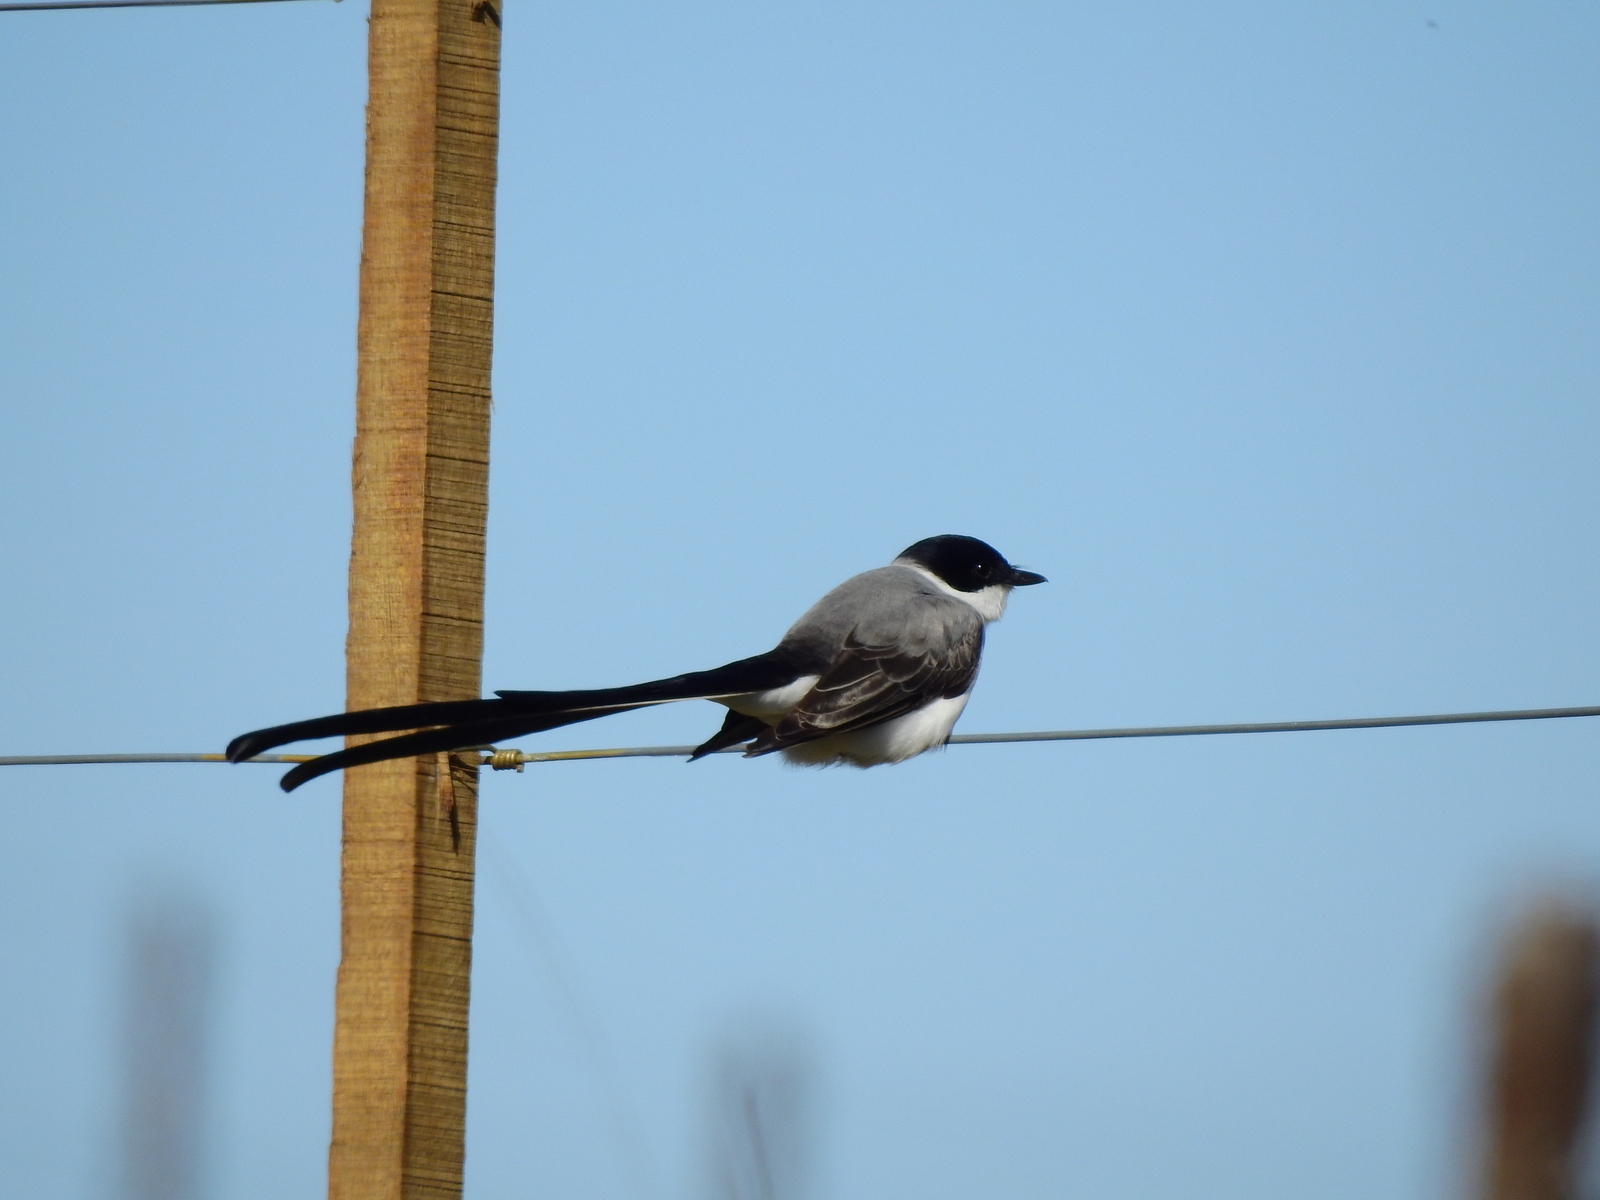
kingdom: Animalia
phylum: Chordata
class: Aves
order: Passeriformes
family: Tyrannidae
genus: Tyrannus
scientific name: Tyrannus savana
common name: Fork-tailed flycatcher
